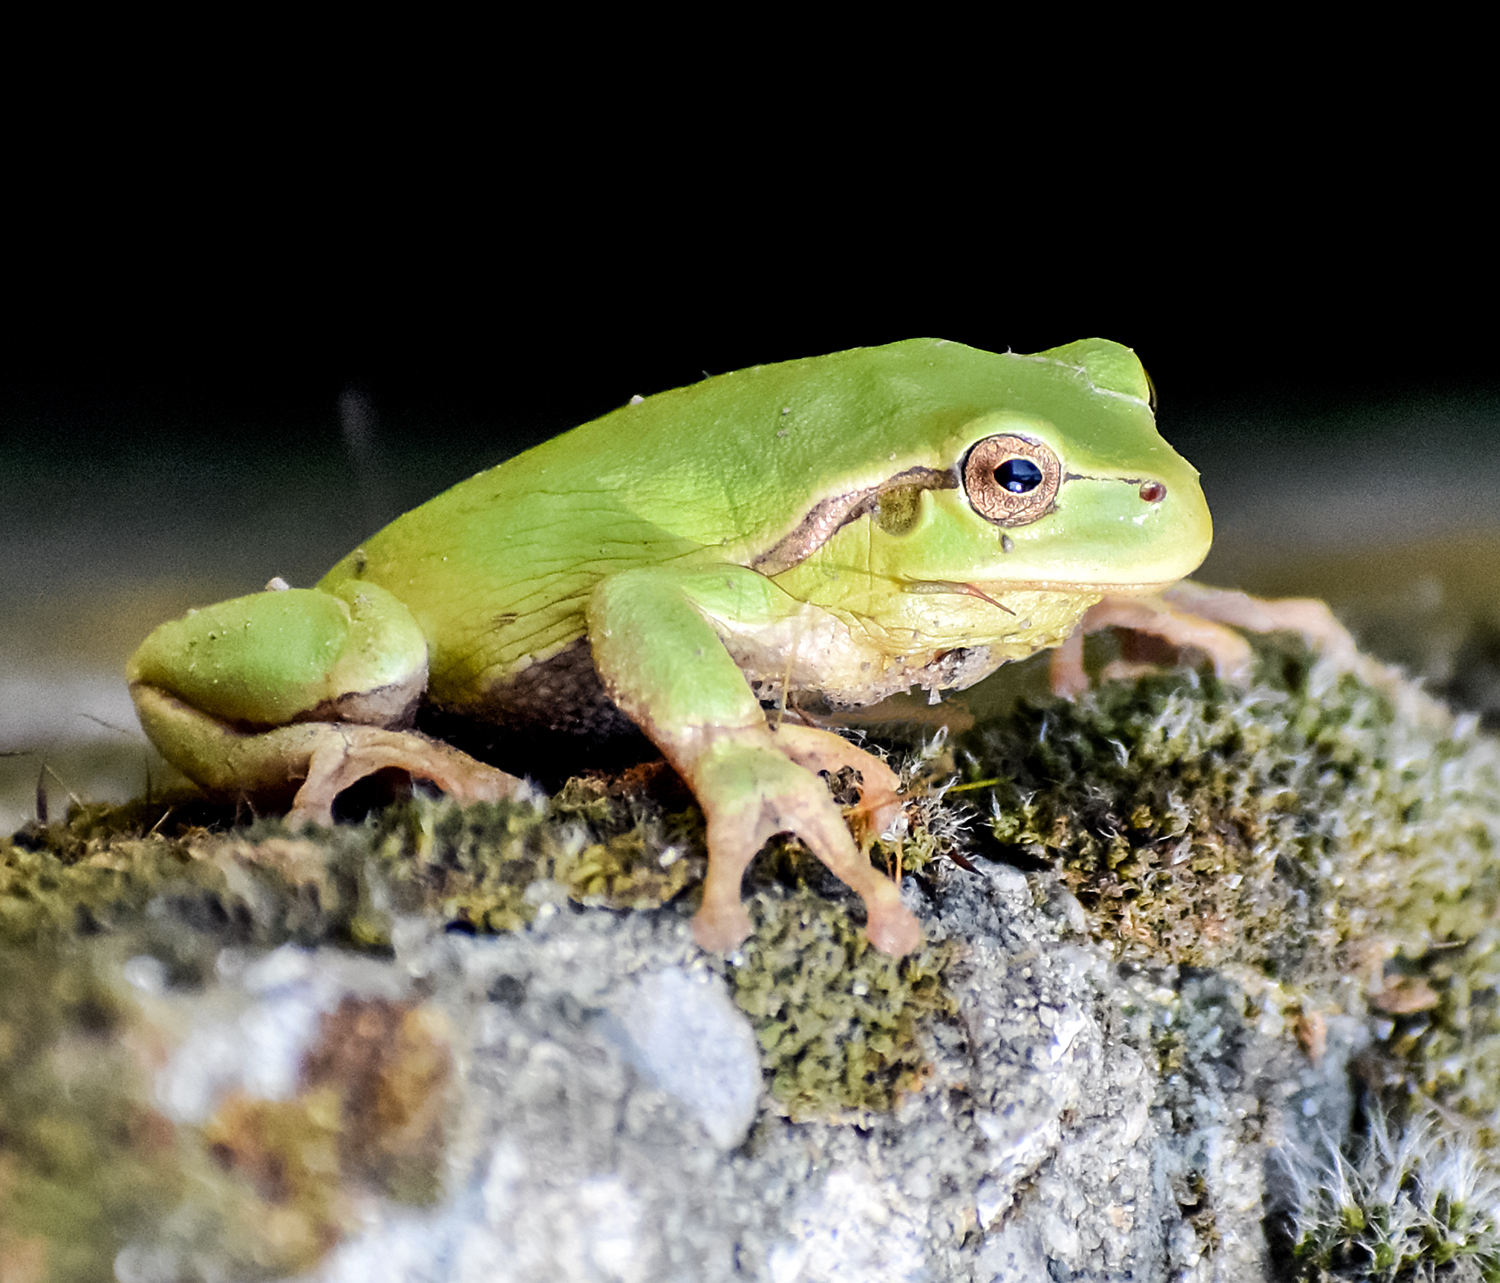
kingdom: Animalia
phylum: Chordata
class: Amphibia
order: Anura
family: Hylidae
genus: Hyla
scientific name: Hyla intermedia
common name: Italian tree frog
